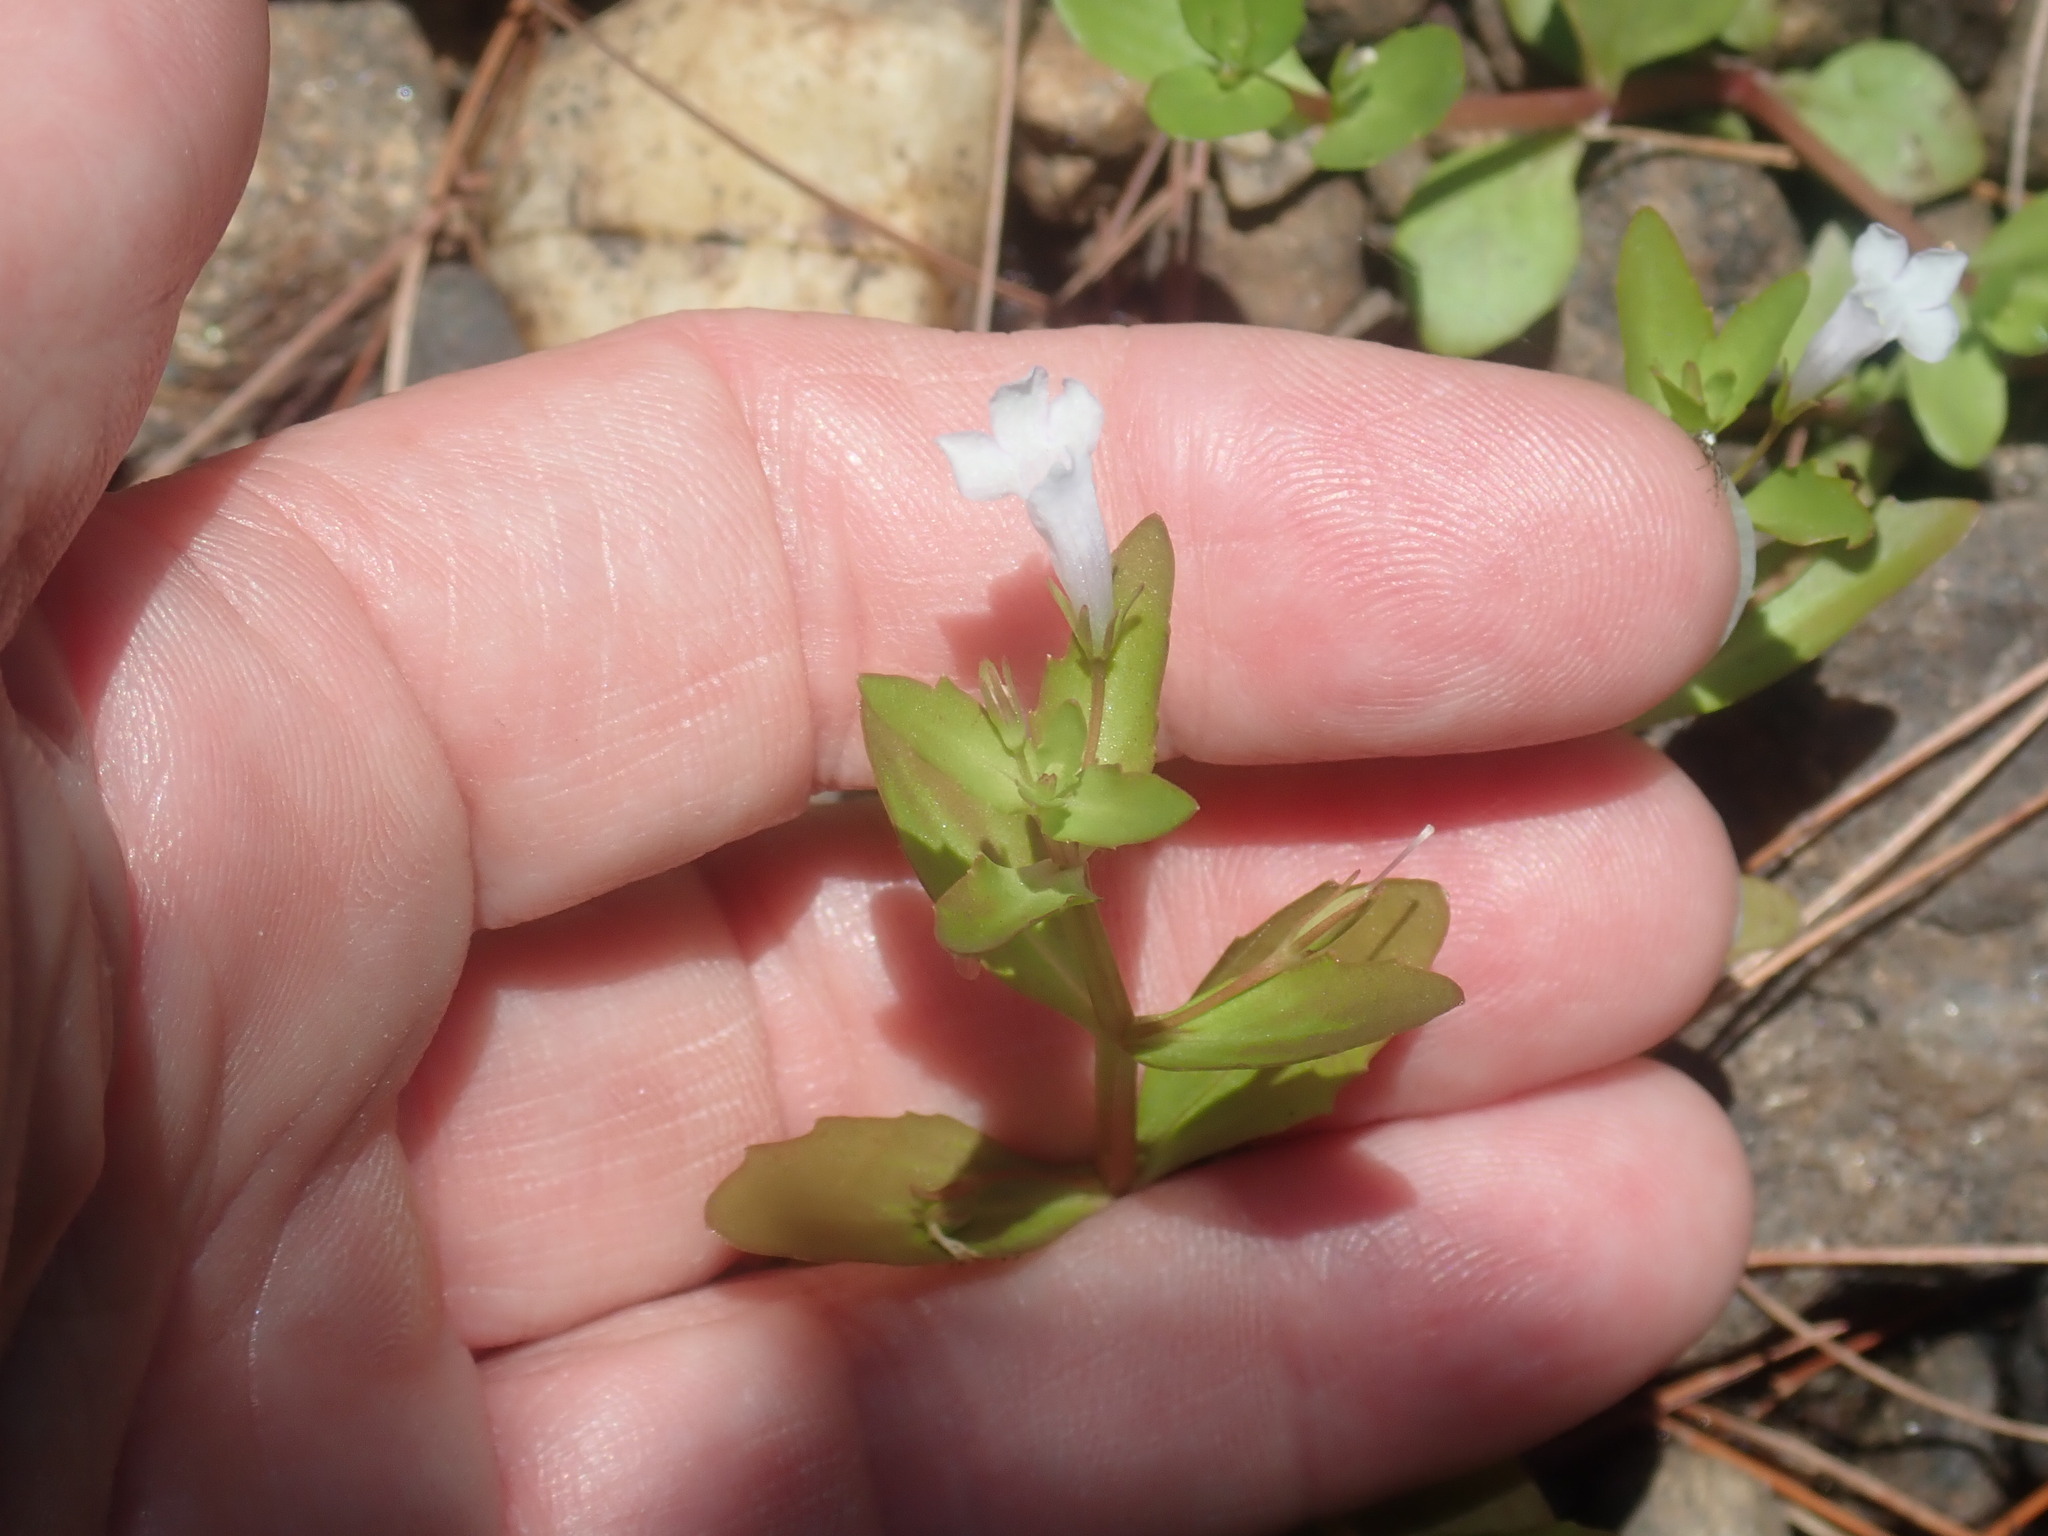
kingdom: Plantae
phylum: Tracheophyta
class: Magnoliopsida
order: Lamiales
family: Linderniaceae
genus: Lindernia
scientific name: Lindernia dubia
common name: Annual false pimpernel
